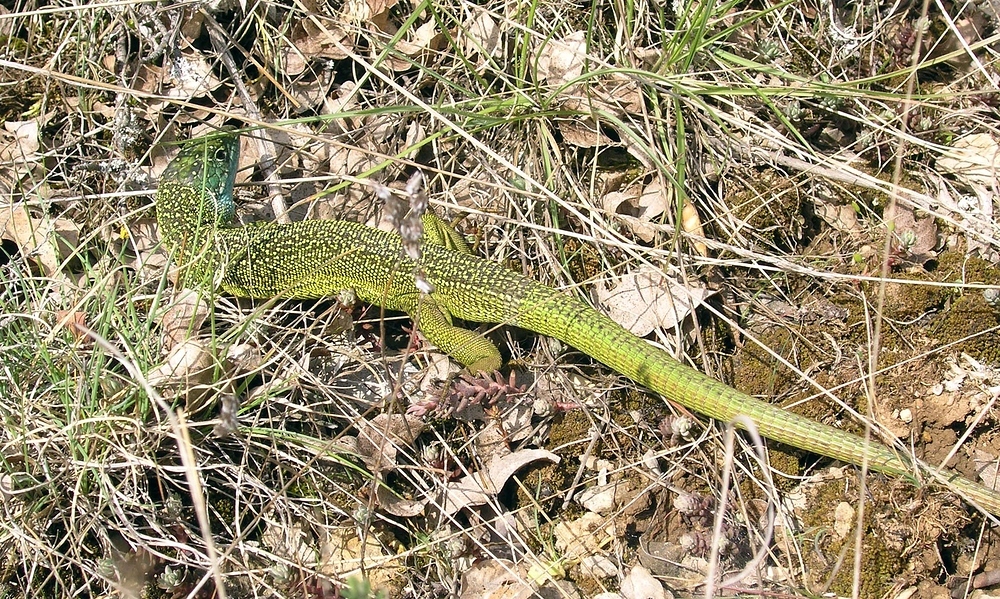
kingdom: Animalia
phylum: Chordata
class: Squamata
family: Lacertidae
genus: Lacerta
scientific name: Lacerta bilineata
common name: Western green lizard
